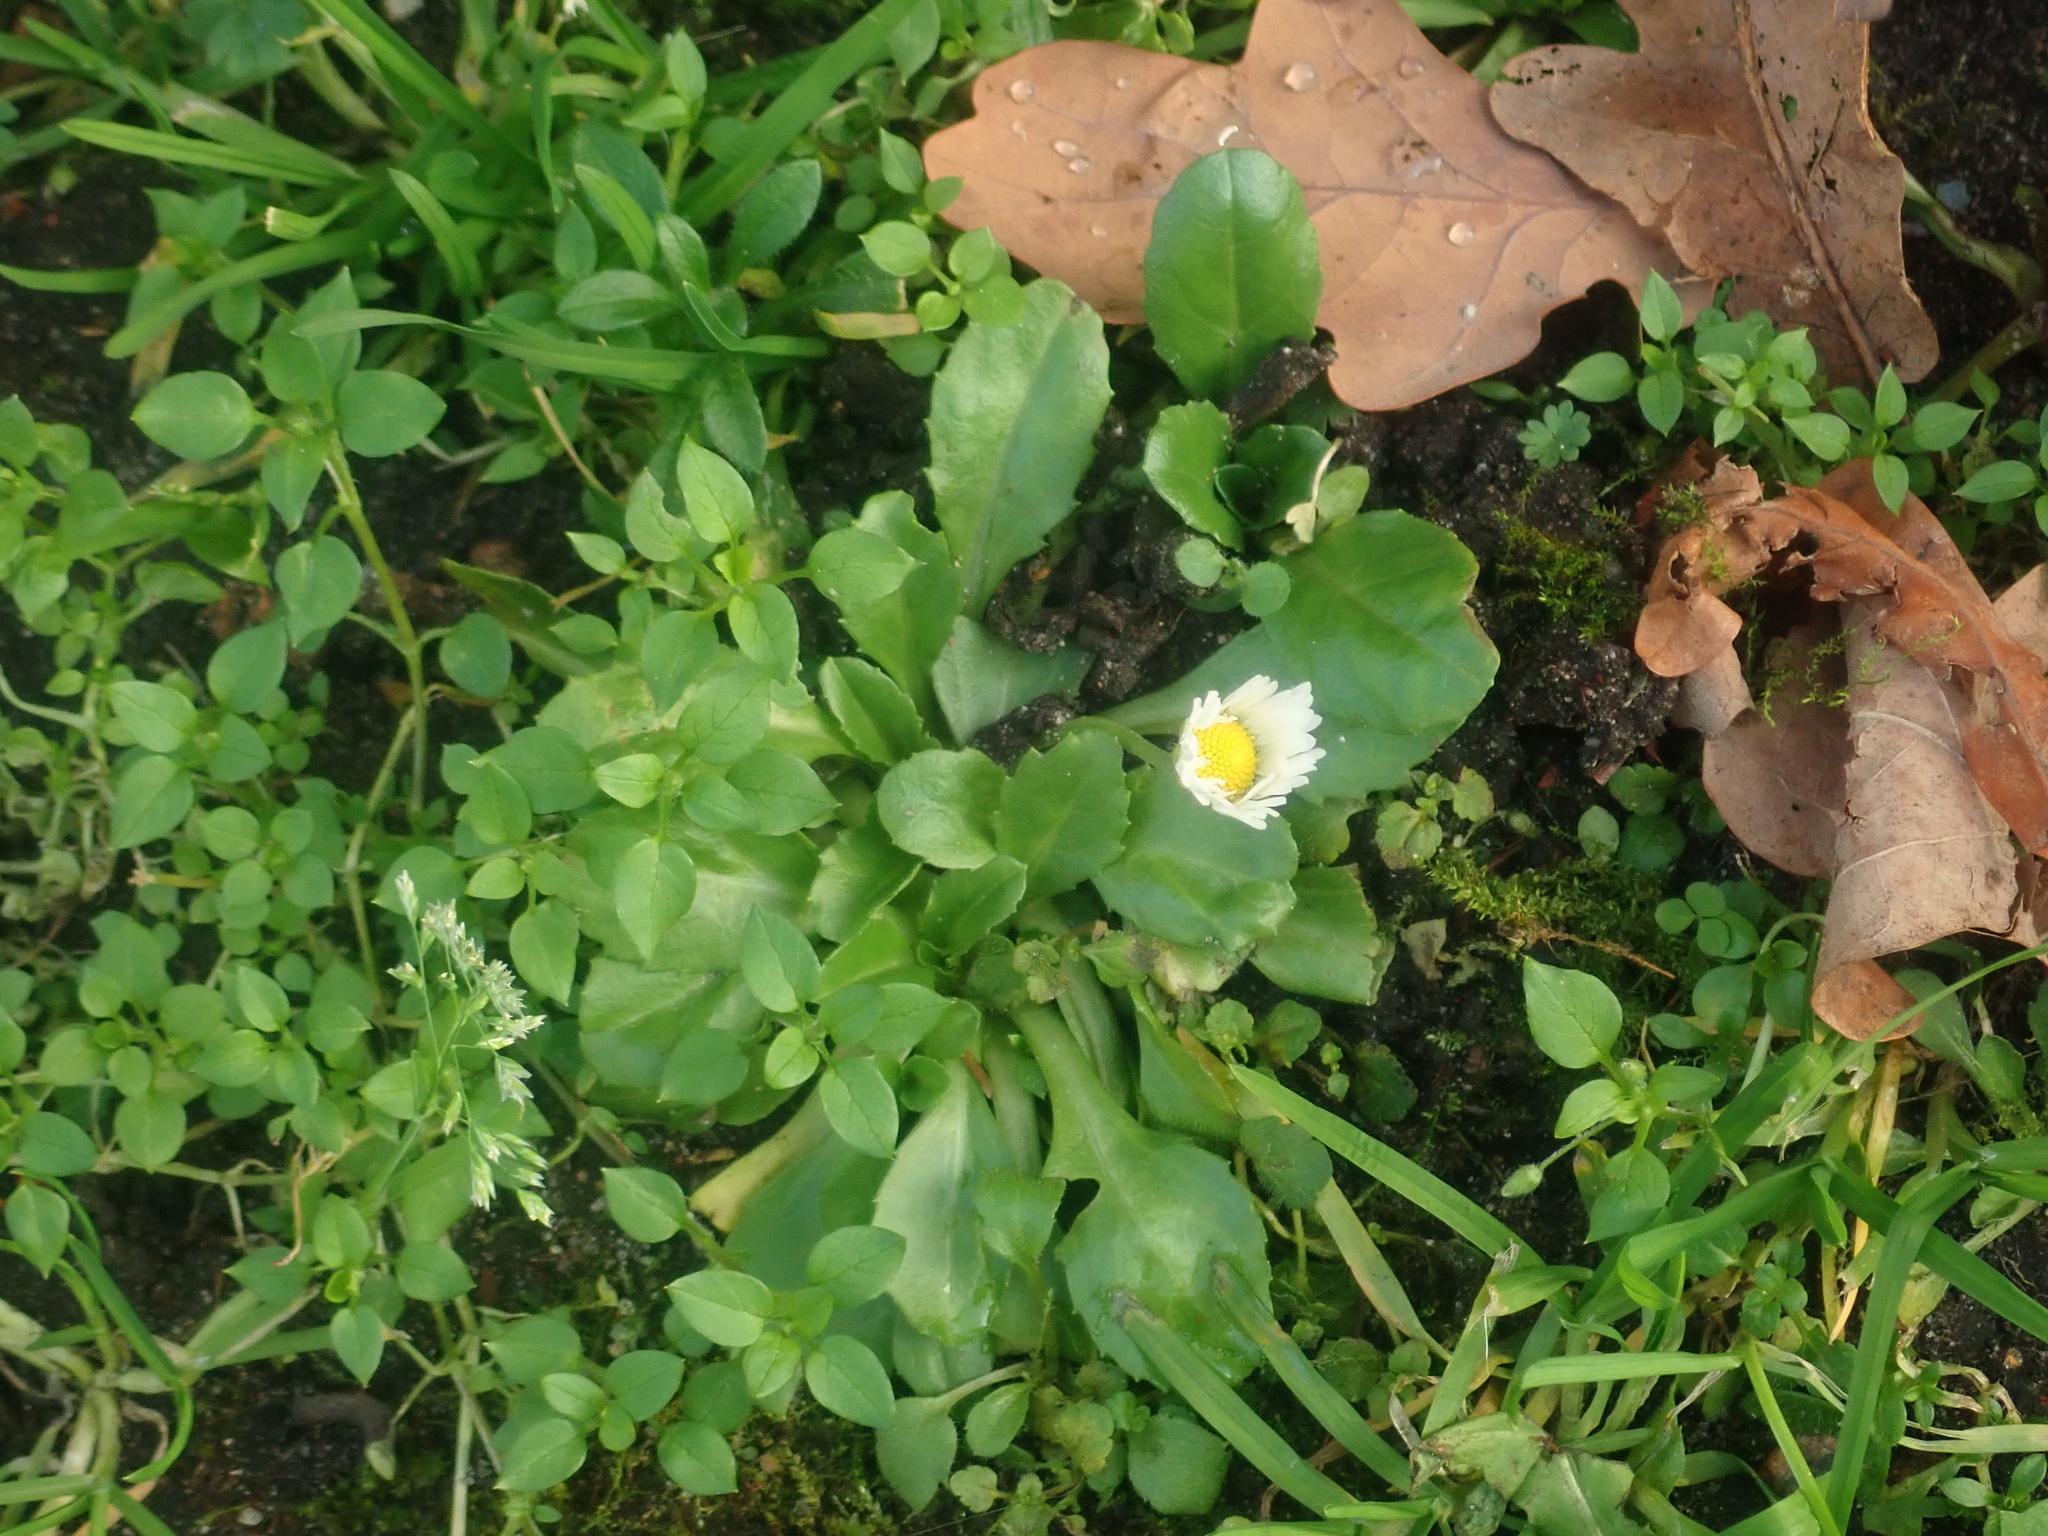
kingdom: Plantae
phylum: Tracheophyta
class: Magnoliopsida
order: Asterales
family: Asteraceae
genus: Bellis
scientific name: Bellis perennis
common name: Lawndaisy
